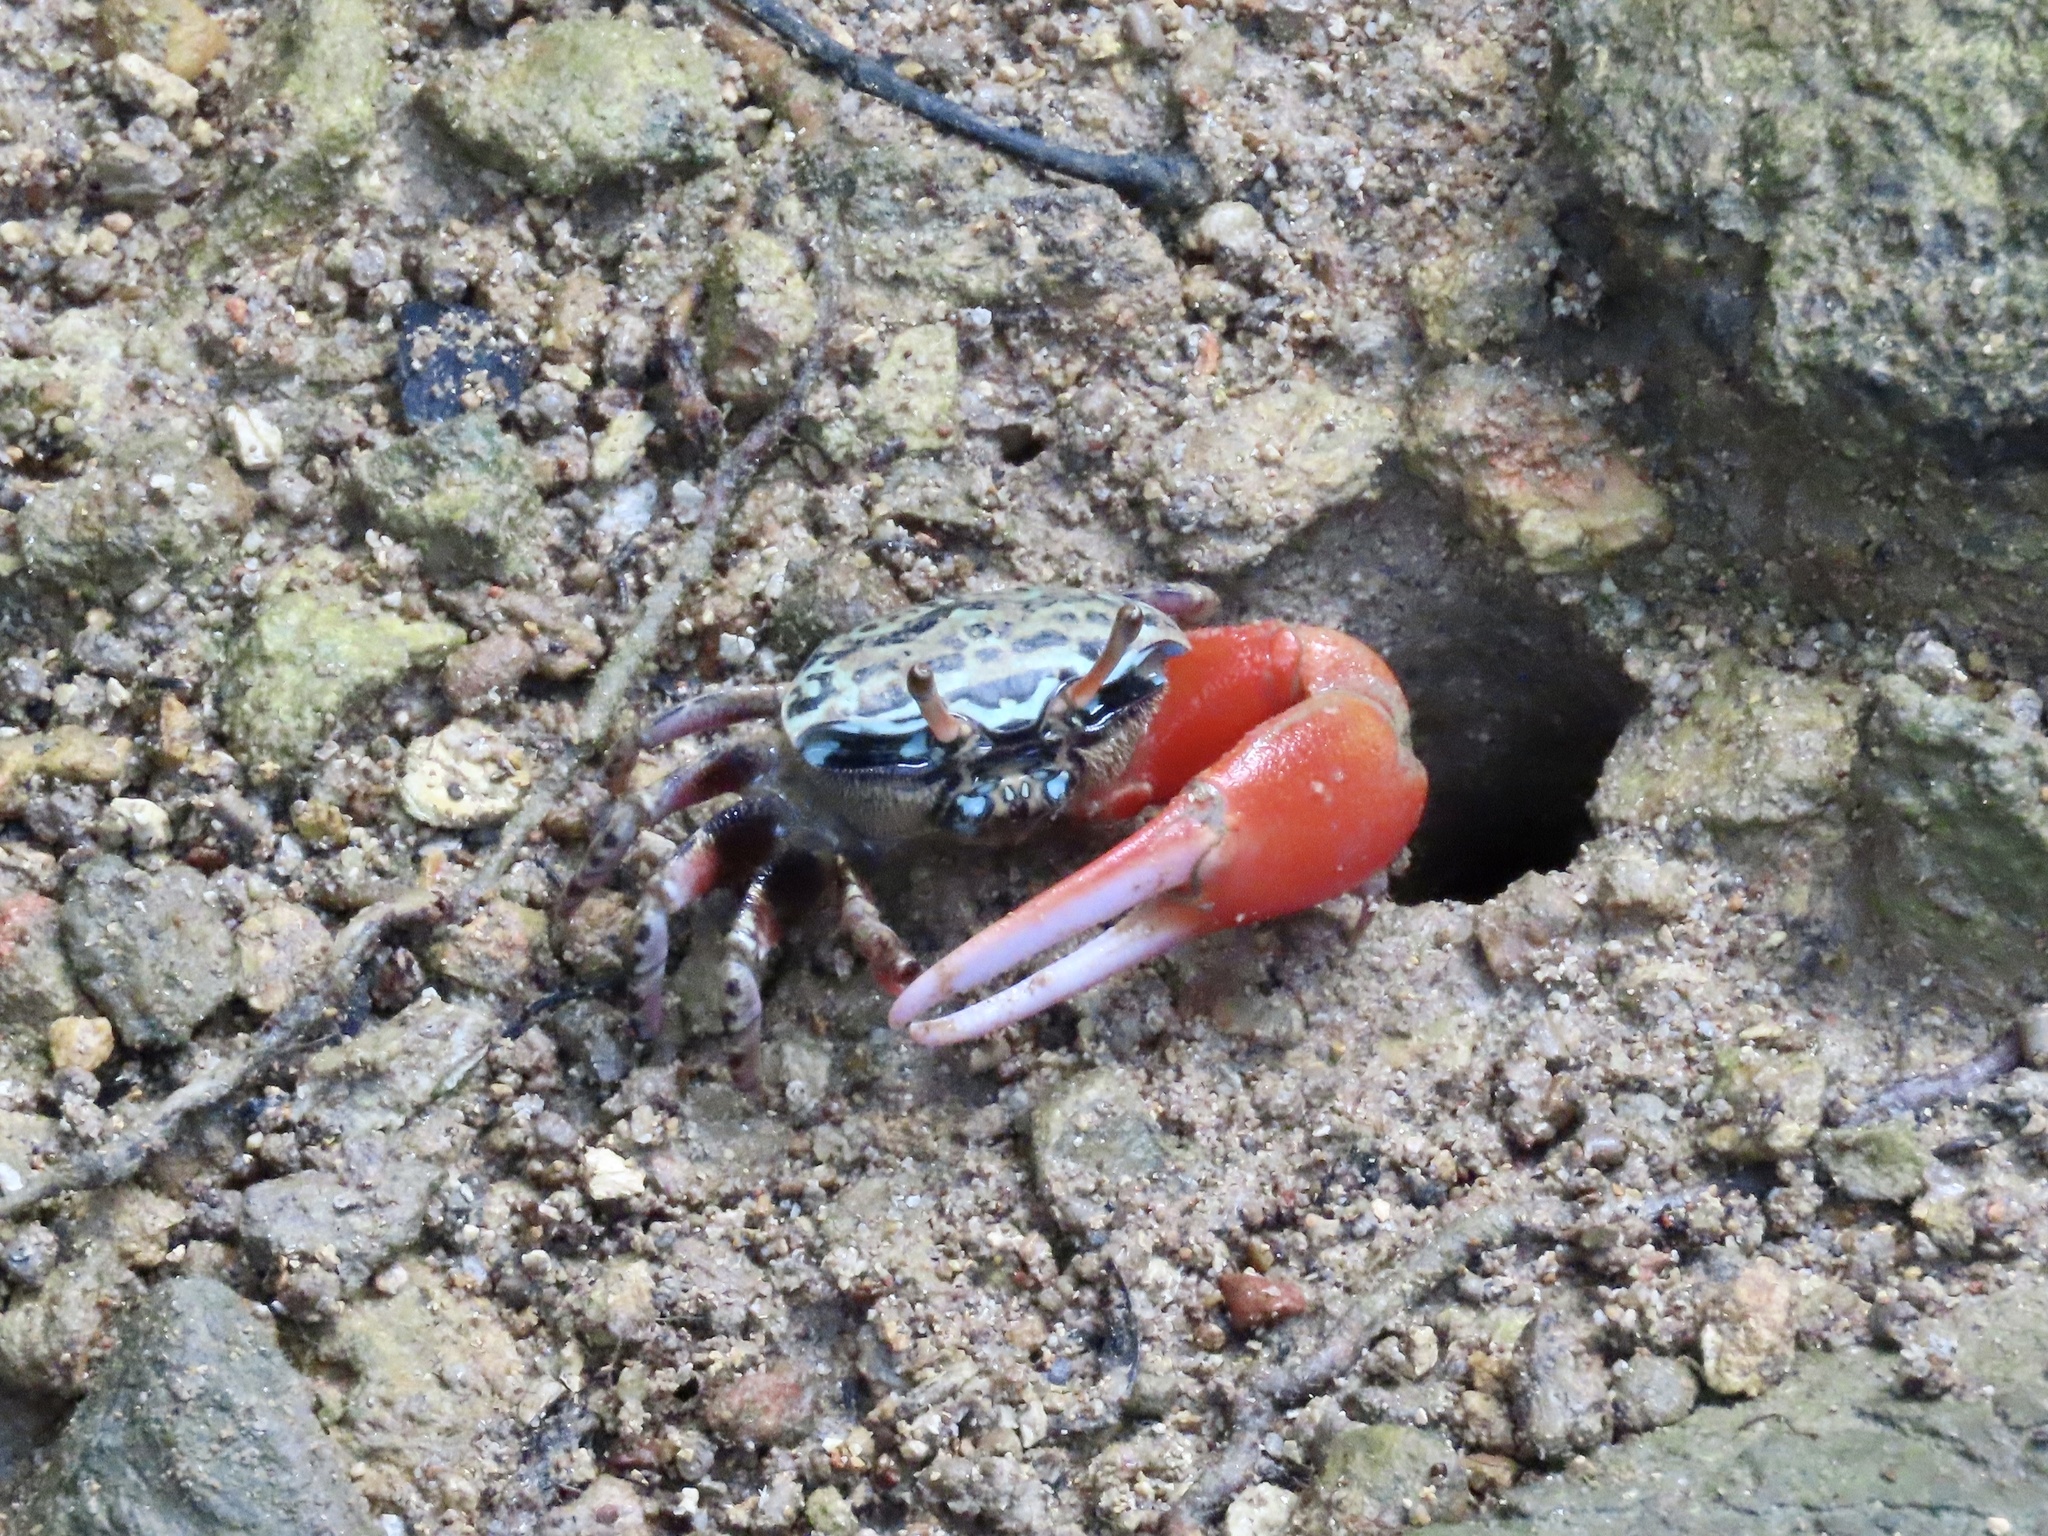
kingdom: Animalia
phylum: Arthropoda
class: Malacostraca
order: Decapoda
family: Ocypodidae
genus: Paraleptuca
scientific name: Paraleptuca splendida
